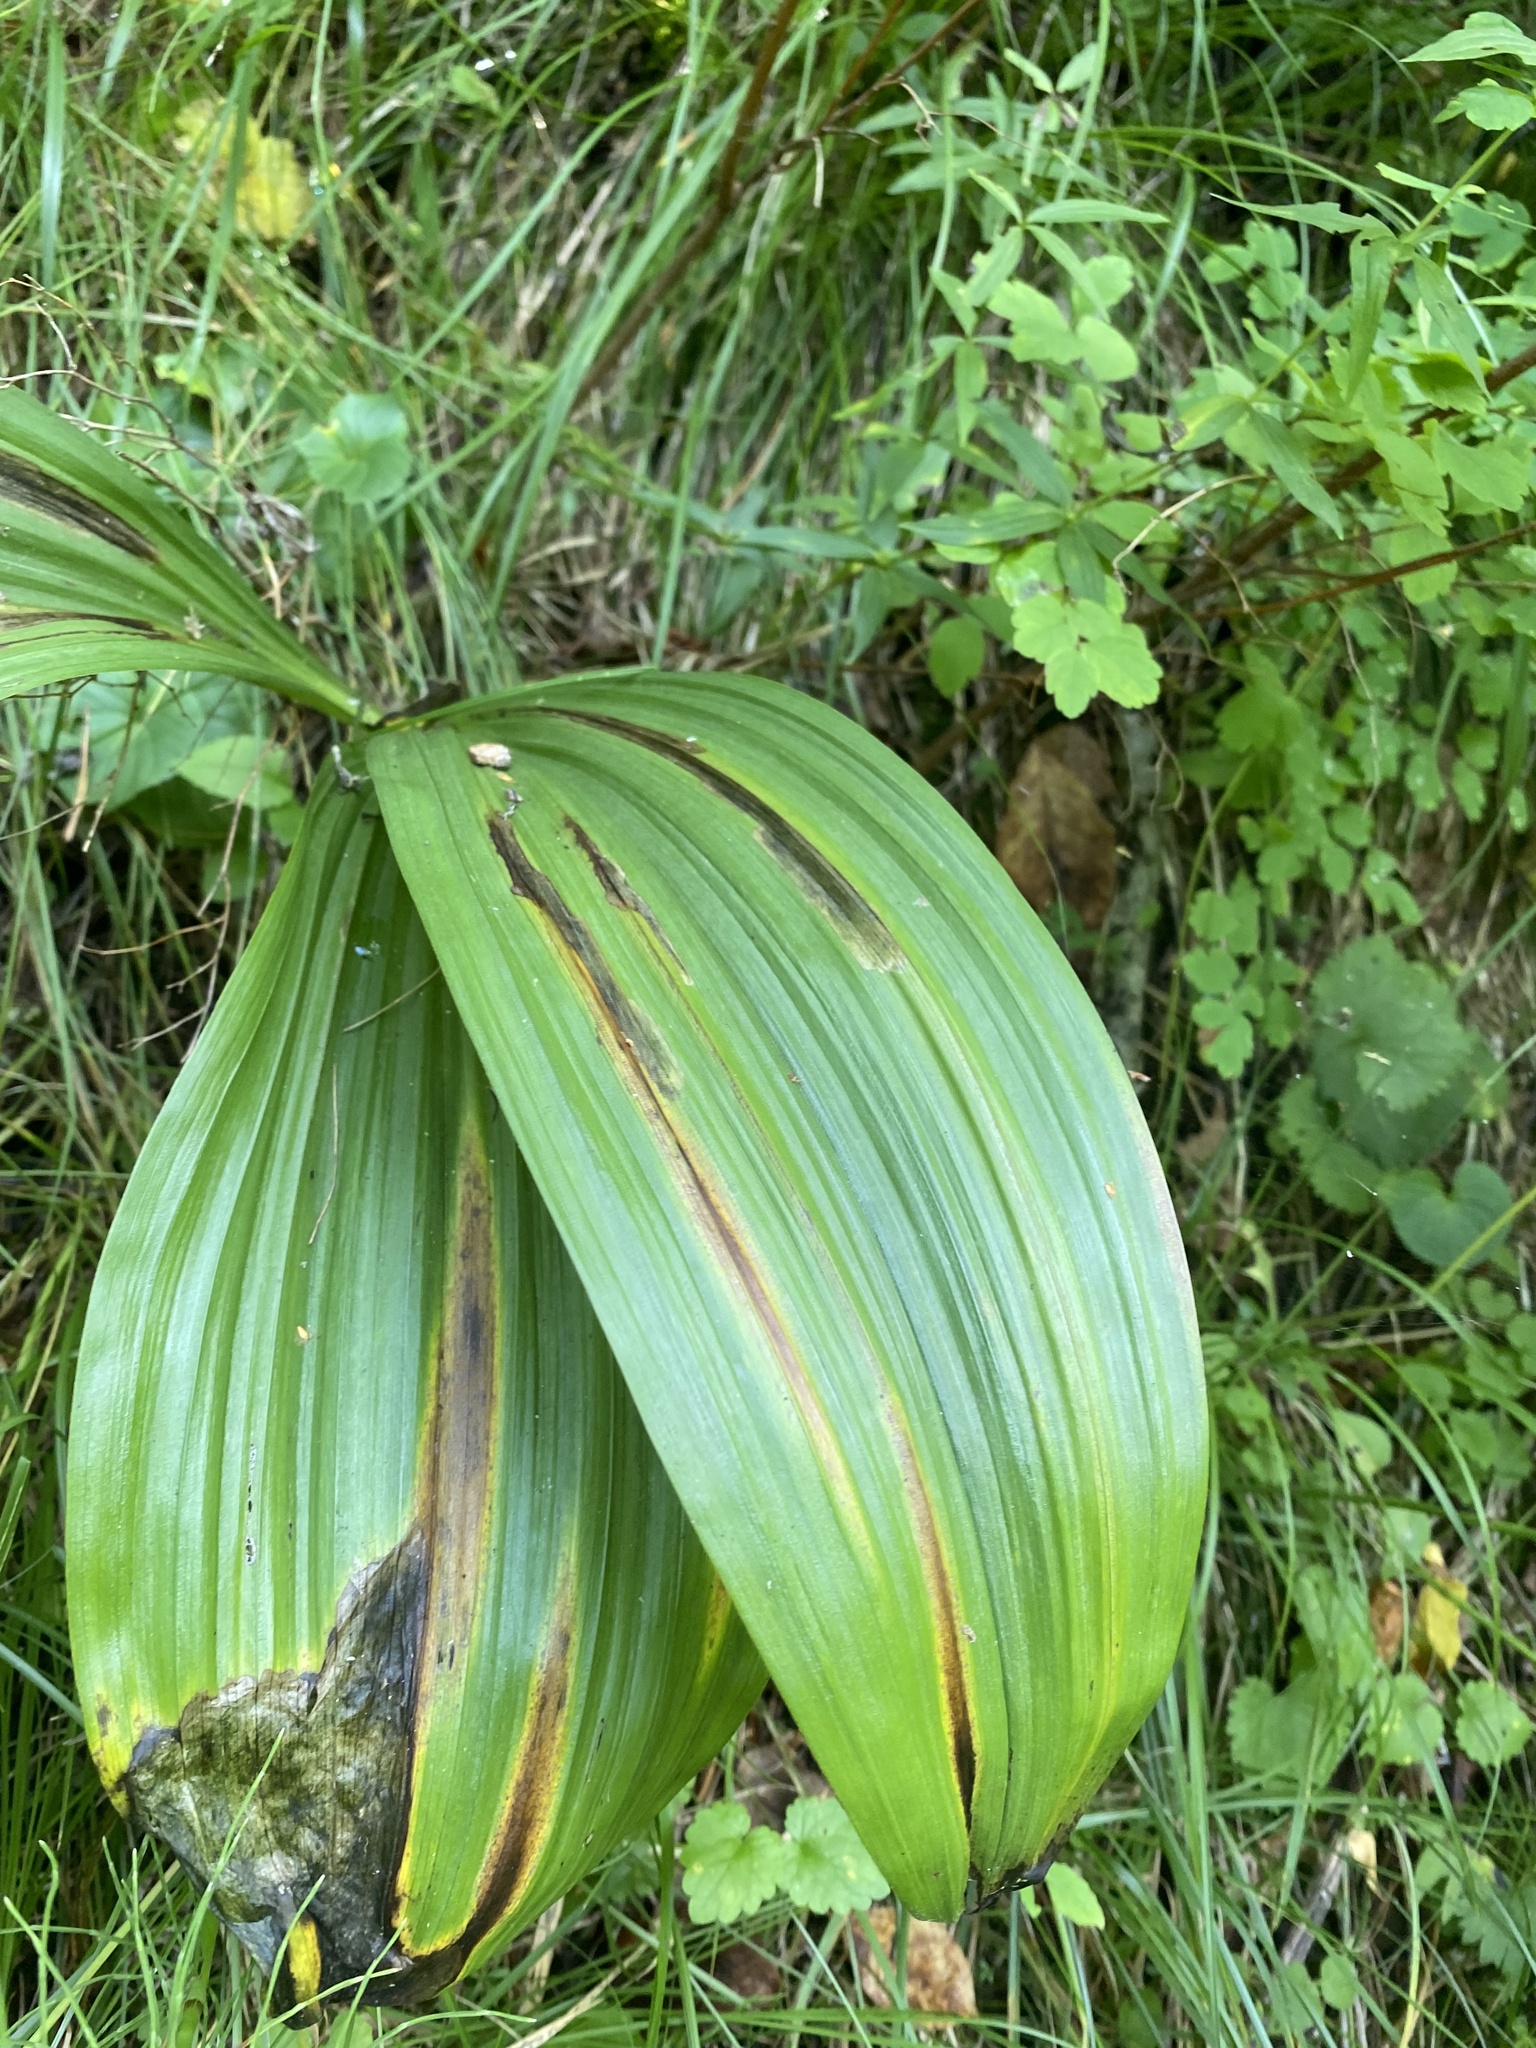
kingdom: Plantae
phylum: Tracheophyta
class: Liliopsida
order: Liliales
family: Melanthiaceae
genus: Veratrum
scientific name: Veratrum nigrum
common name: Black veratrum
